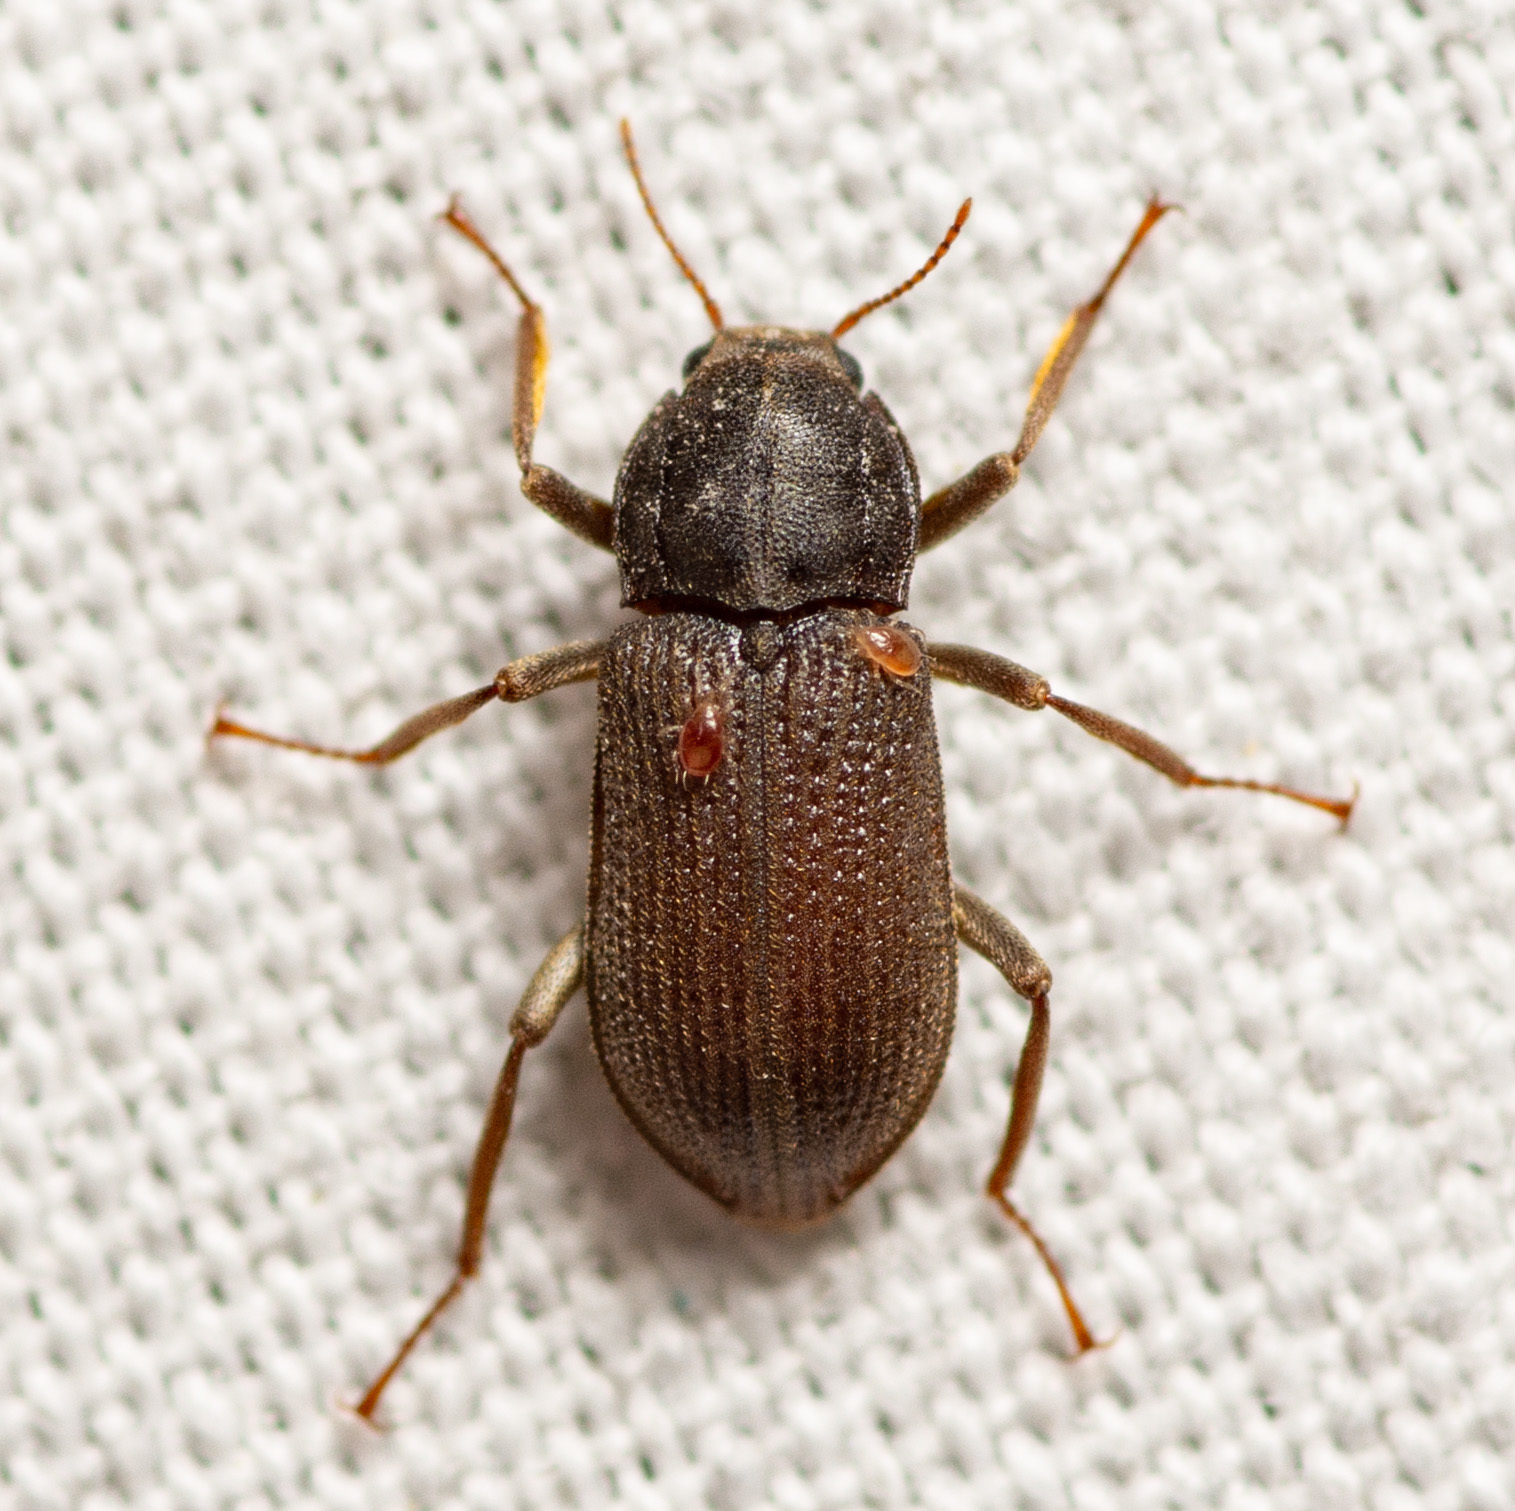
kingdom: Animalia
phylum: Arthropoda
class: Insecta
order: Coleoptera
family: Elmidae
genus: Macrelmis
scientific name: Macrelmis texana
